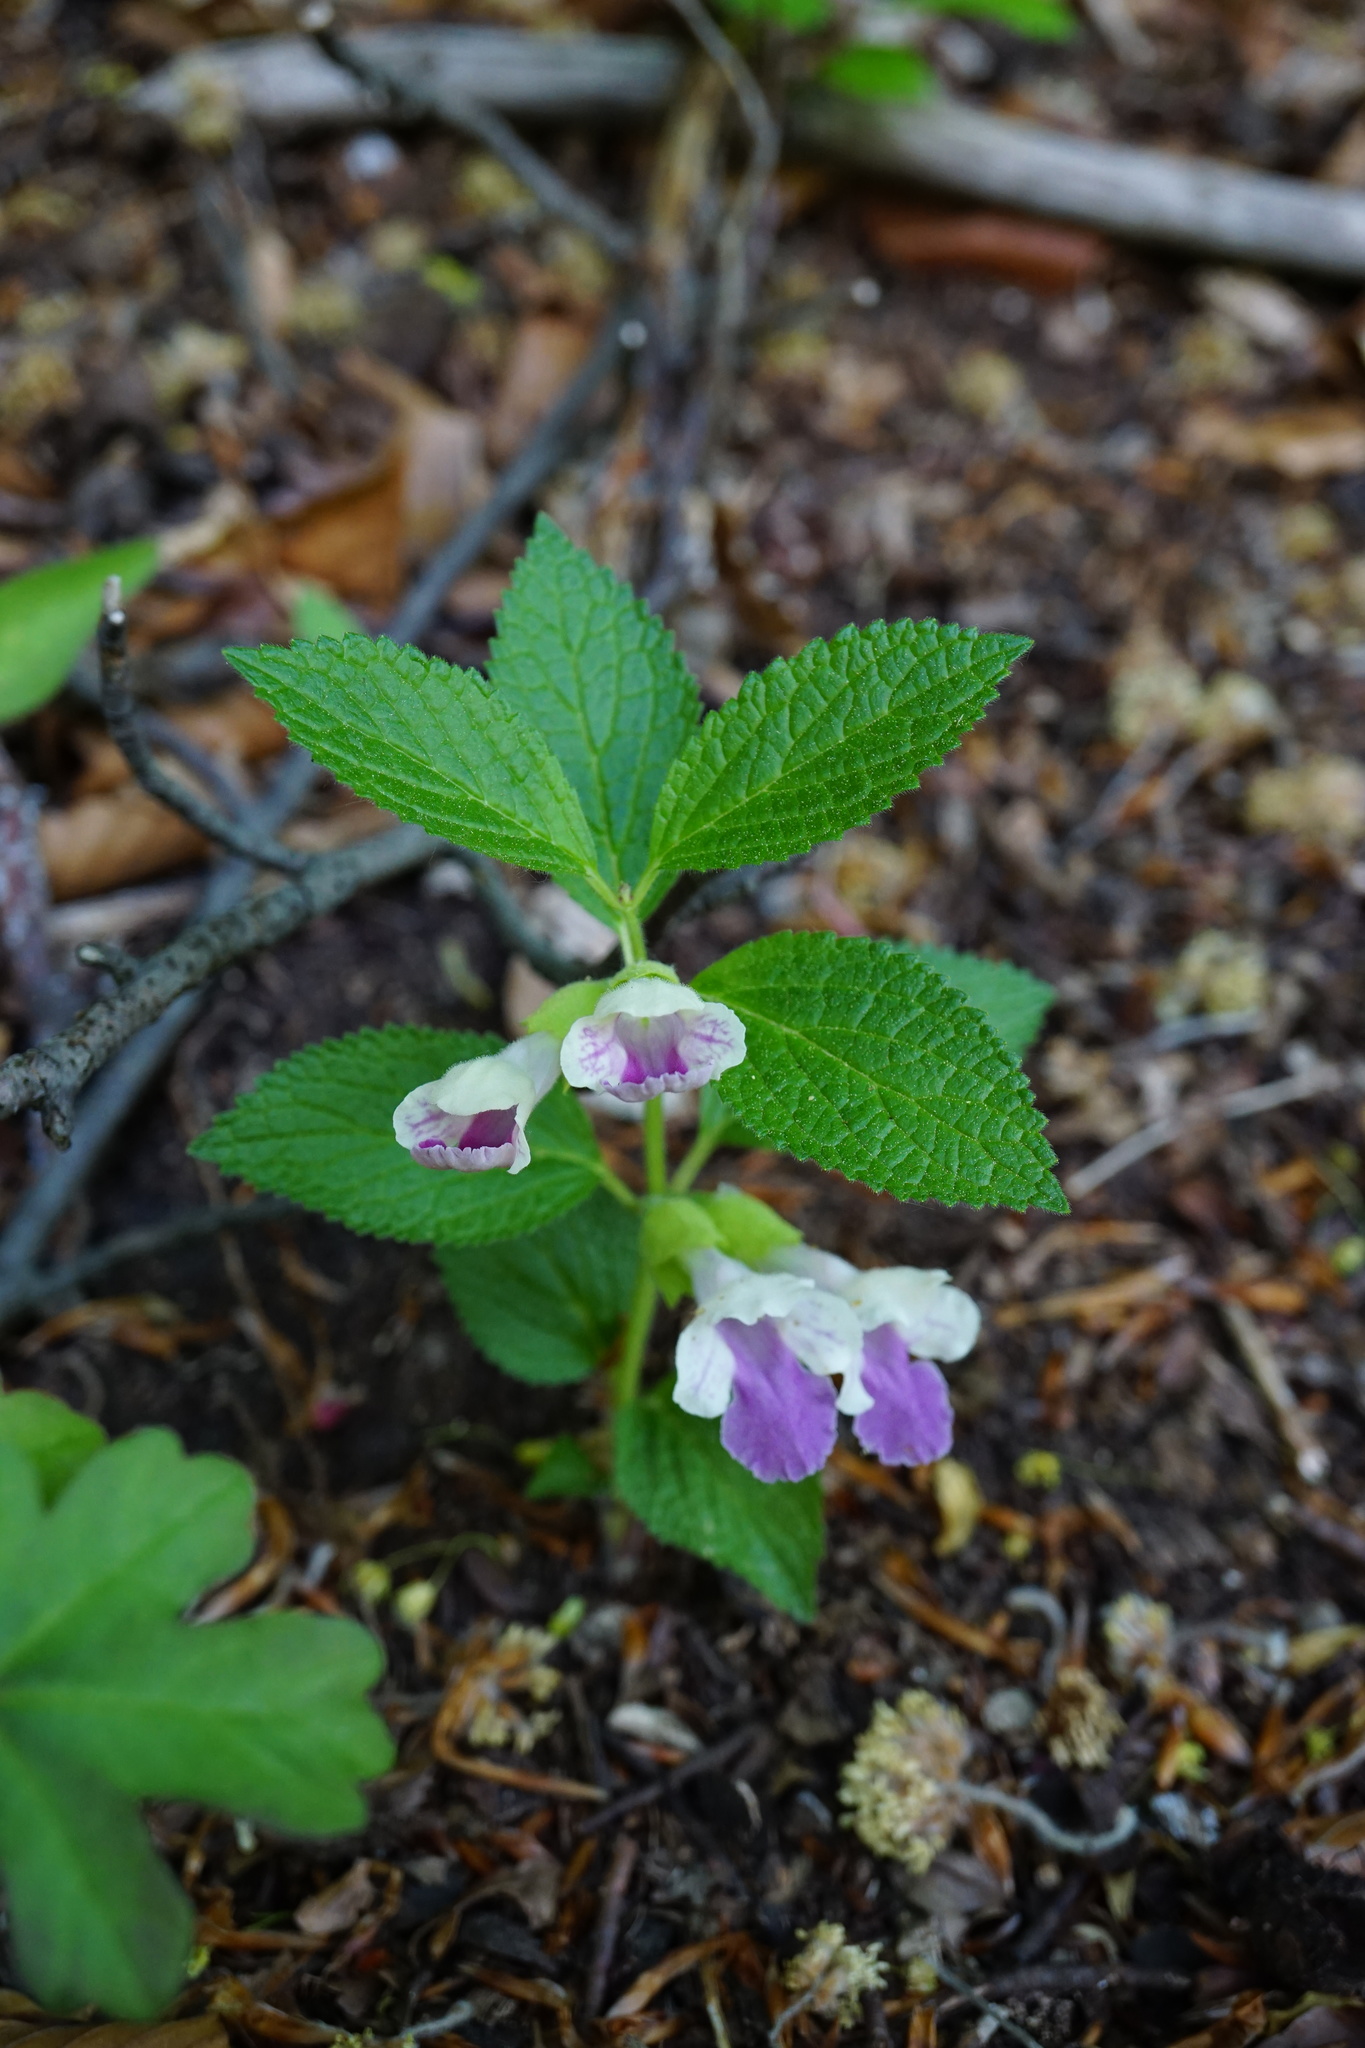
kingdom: Plantae
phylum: Tracheophyta
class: Magnoliopsida
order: Lamiales
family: Lamiaceae
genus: Melittis
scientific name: Melittis melissophyllum
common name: Bastard balm
